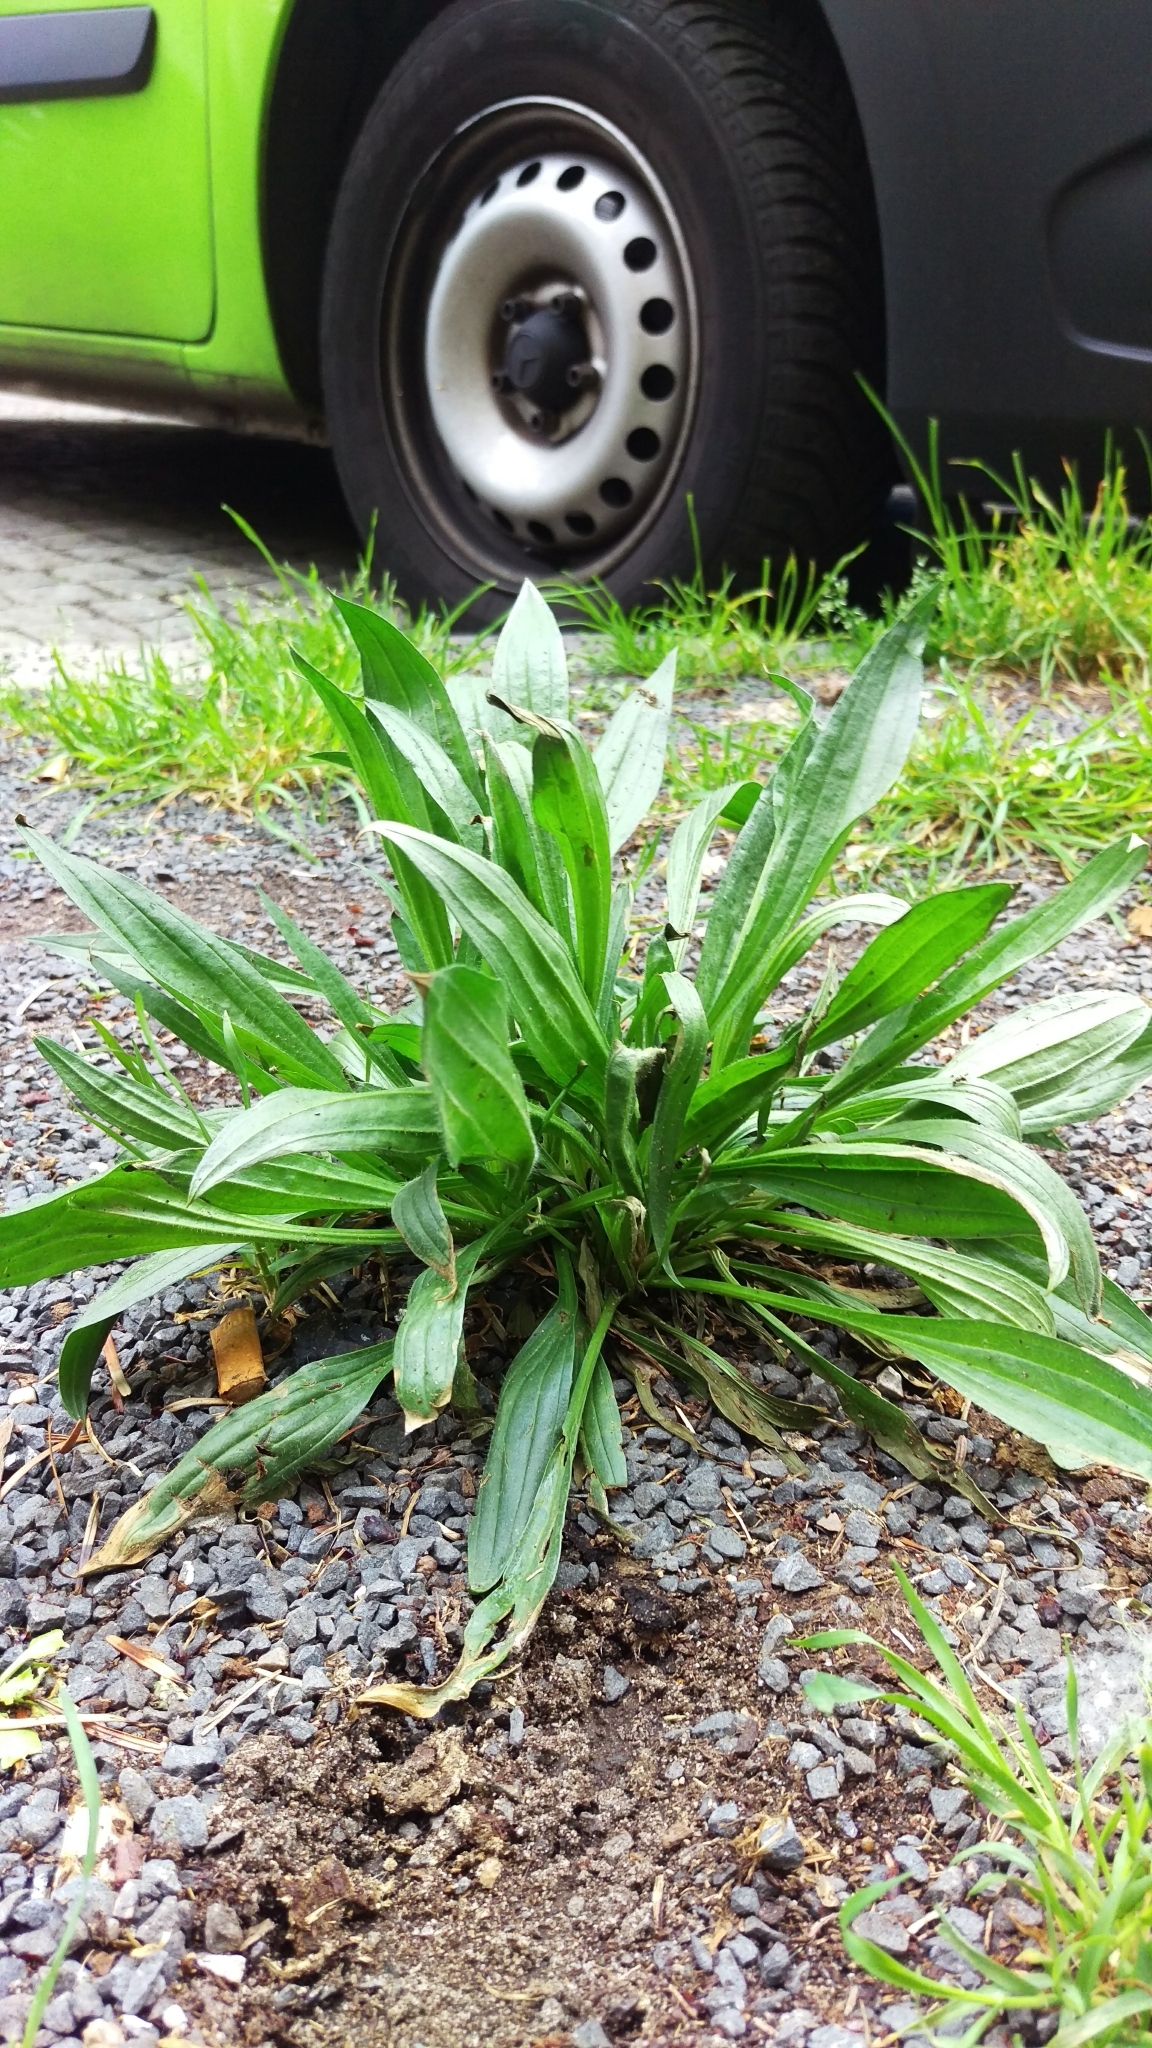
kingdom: Plantae
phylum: Tracheophyta
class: Magnoliopsida
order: Lamiales
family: Plantaginaceae
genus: Plantago
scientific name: Plantago lanceolata
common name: Ribwort plantain
